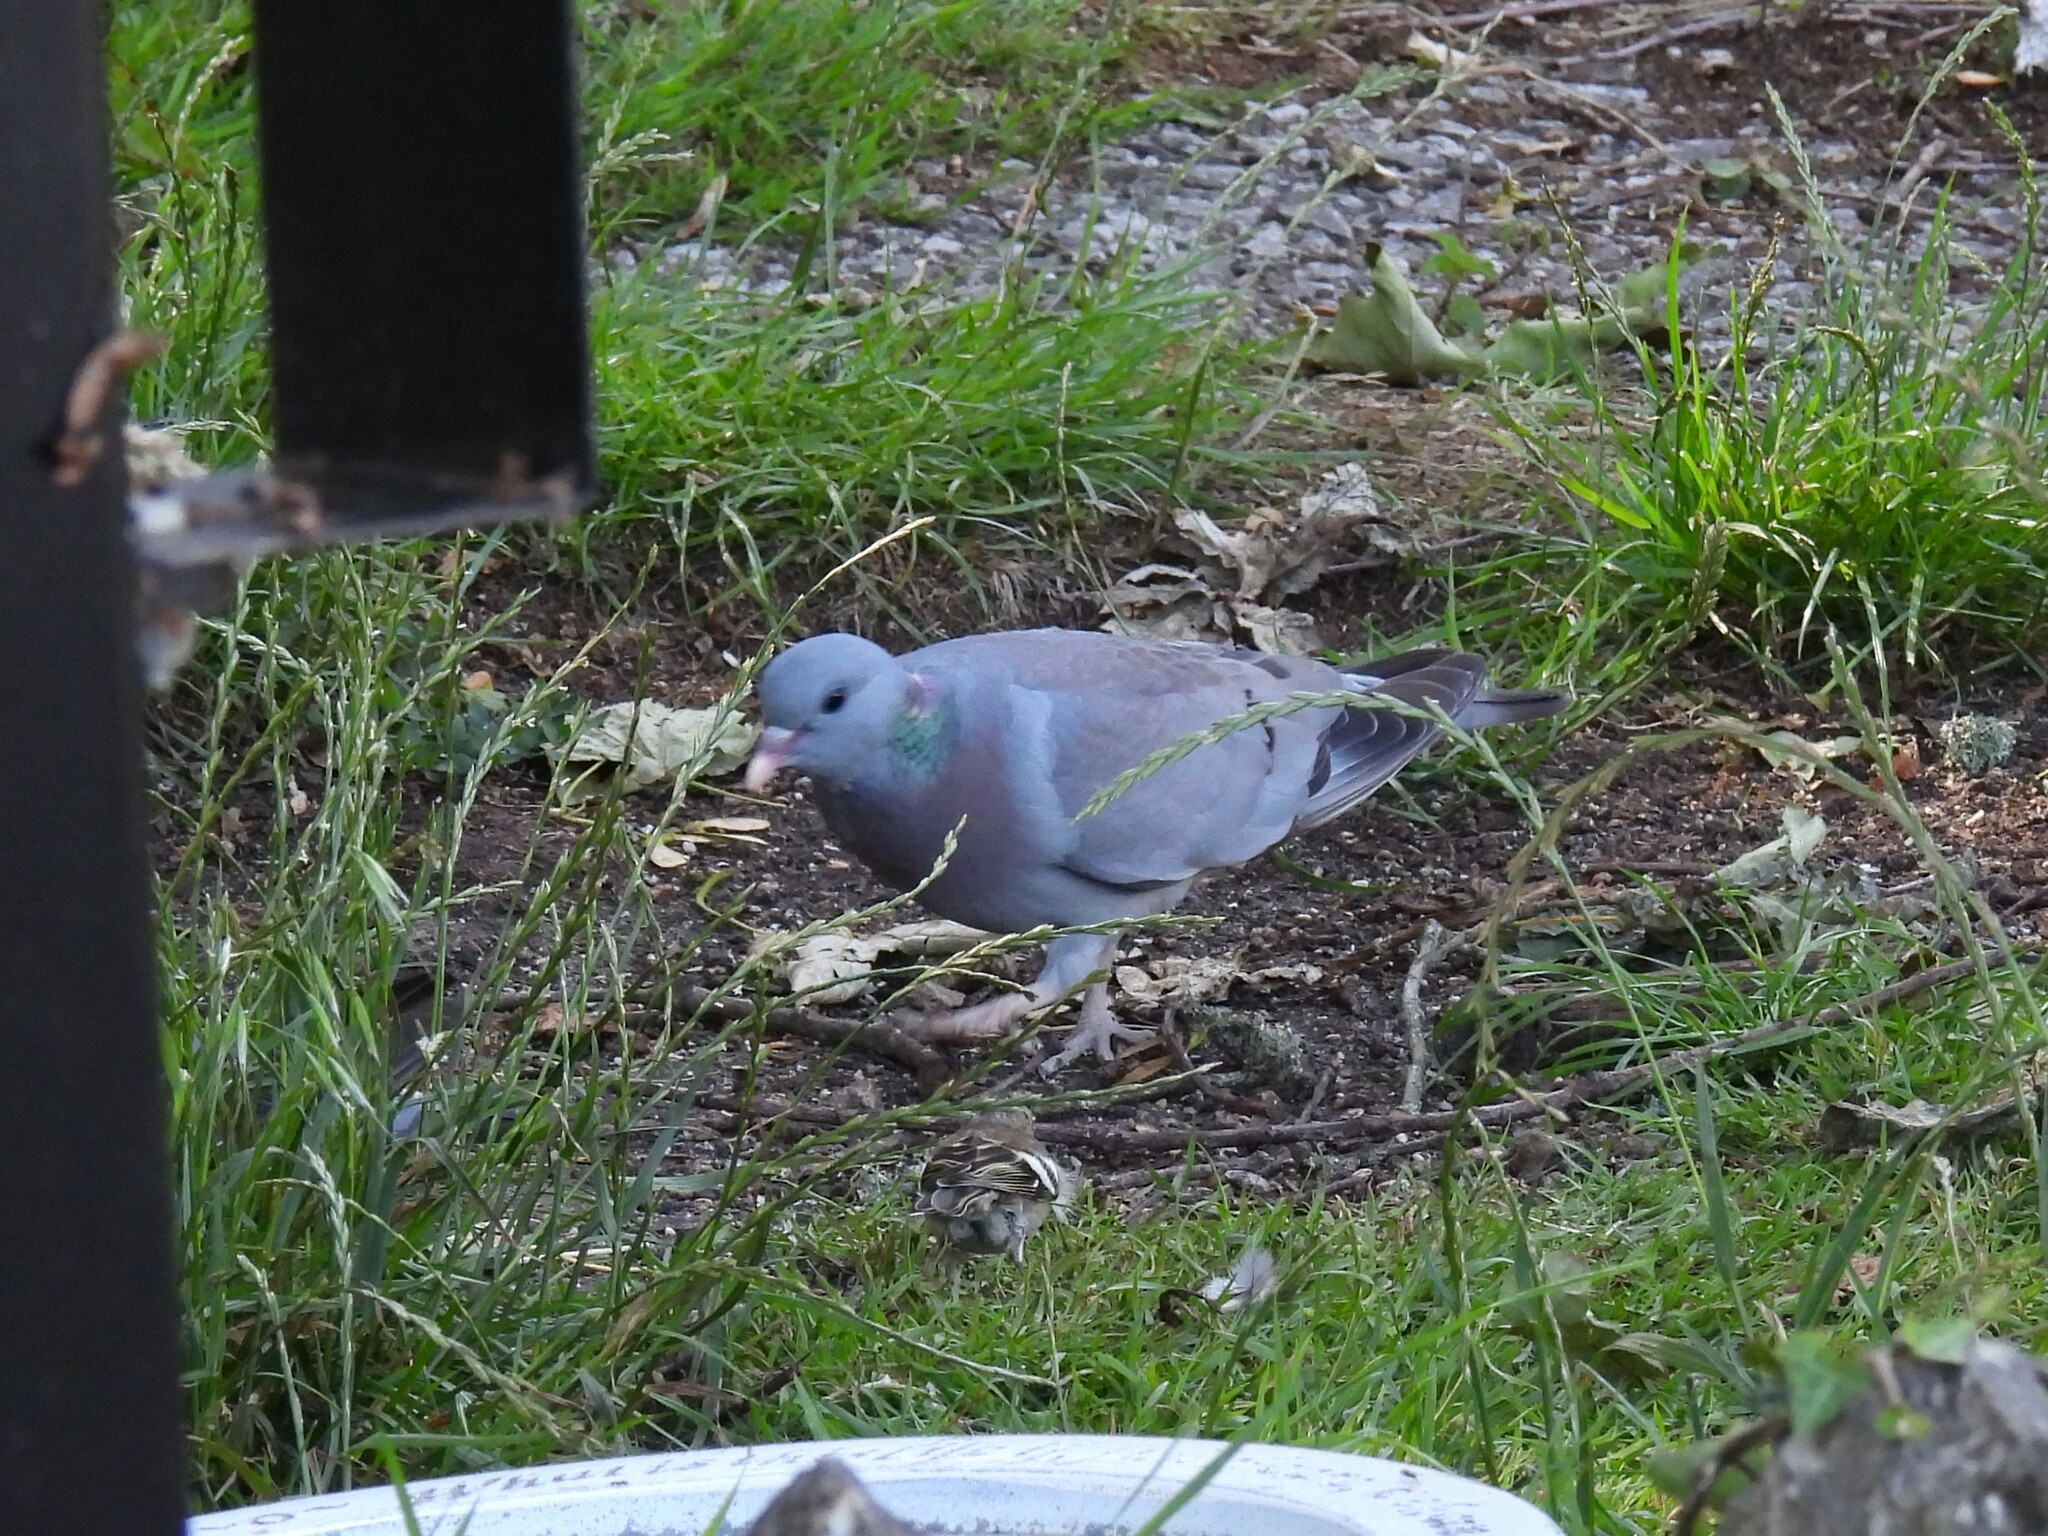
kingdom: Animalia
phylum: Chordata
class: Aves
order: Columbiformes
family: Columbidae
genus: Columba
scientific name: Columba oenas
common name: Stock dove
